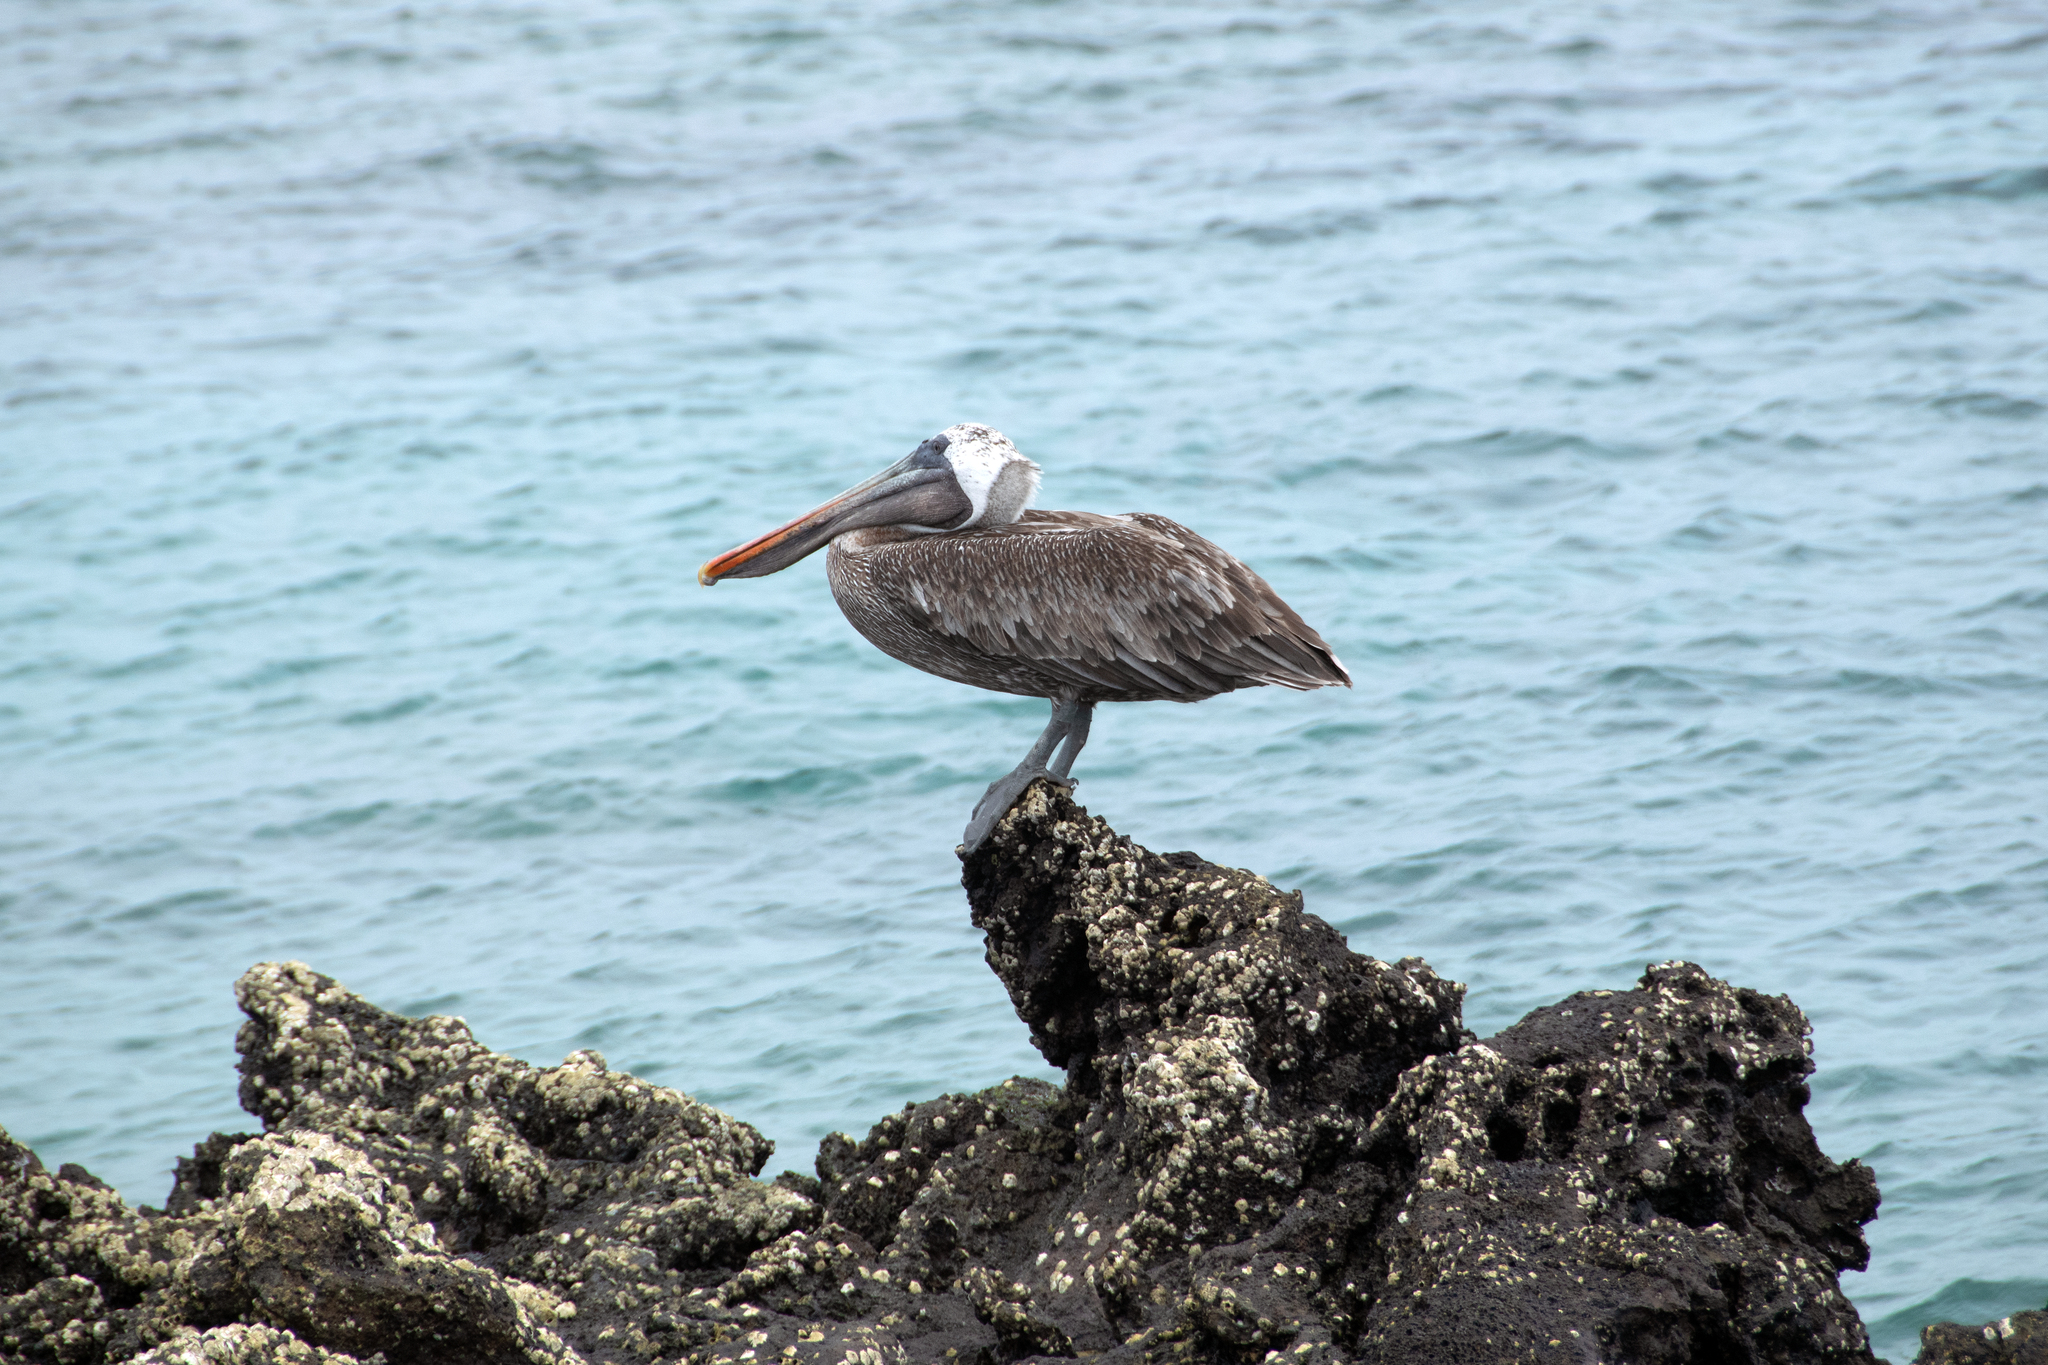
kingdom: Animalia
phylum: Chordata
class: Aves
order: Pelecaniformes
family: Pelecanidae
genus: Pelecanus
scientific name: Pelecanus occidentalis
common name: Brown pelican
